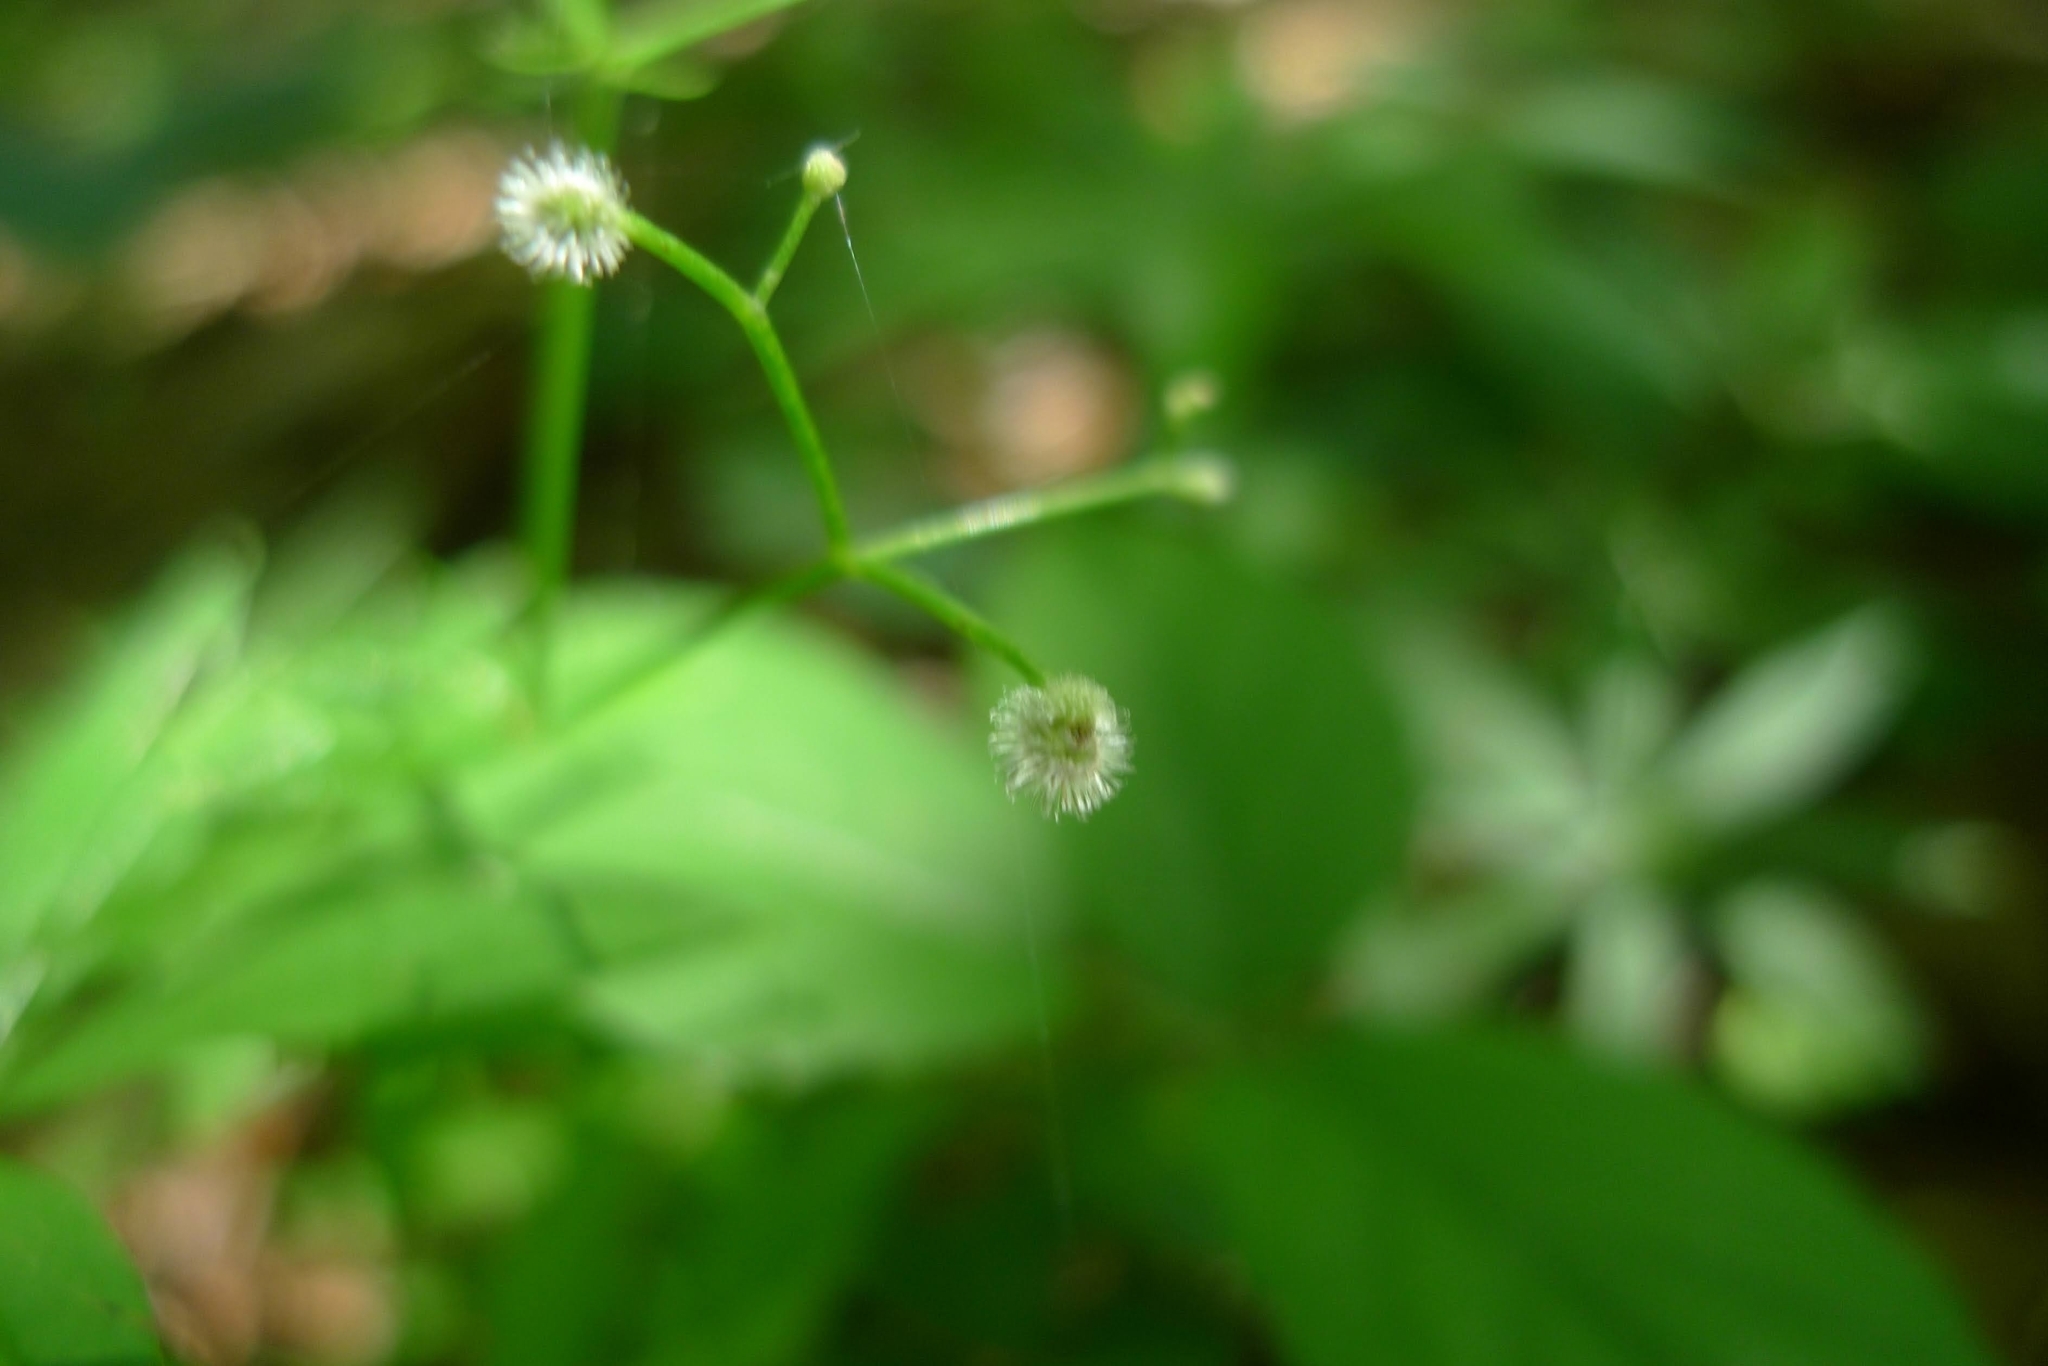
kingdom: Plantae
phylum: Tracheophyta
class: Magnoliopsida
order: Gentianales
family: Rubiaceae
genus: Galium
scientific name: Galium odoratum
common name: Sweet woodruff
